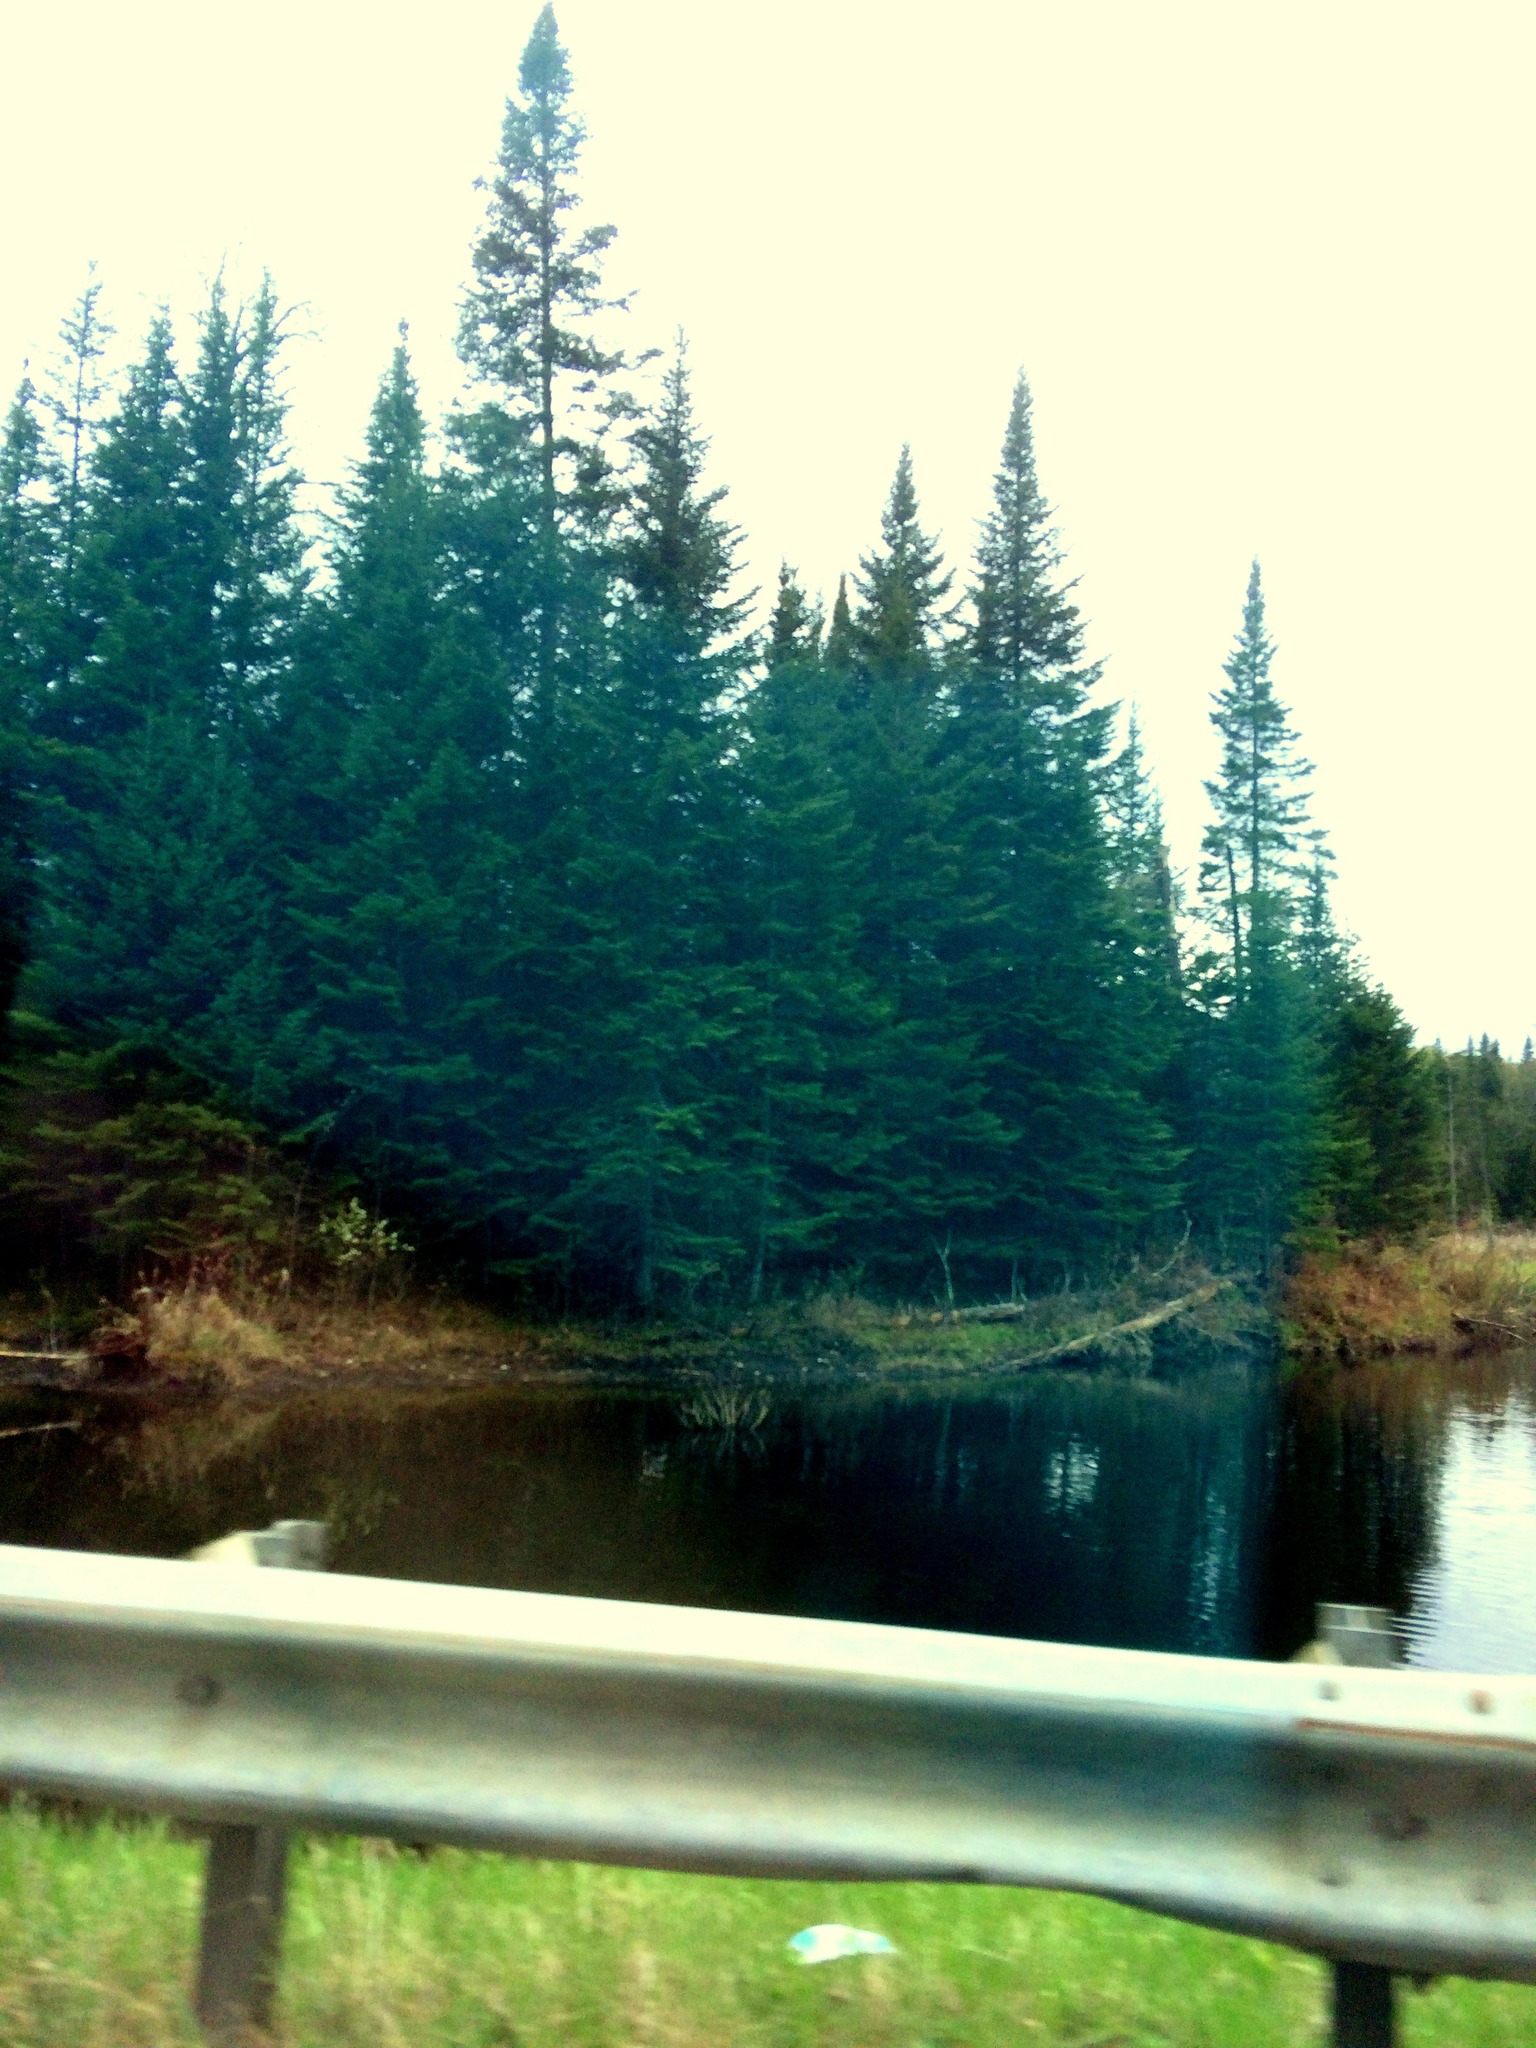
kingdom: Plantae
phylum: Tracheophyta
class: Pinopsida
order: Pinales
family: Pinaceae
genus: Abies
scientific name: Abies balsamea
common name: Balsam fir
